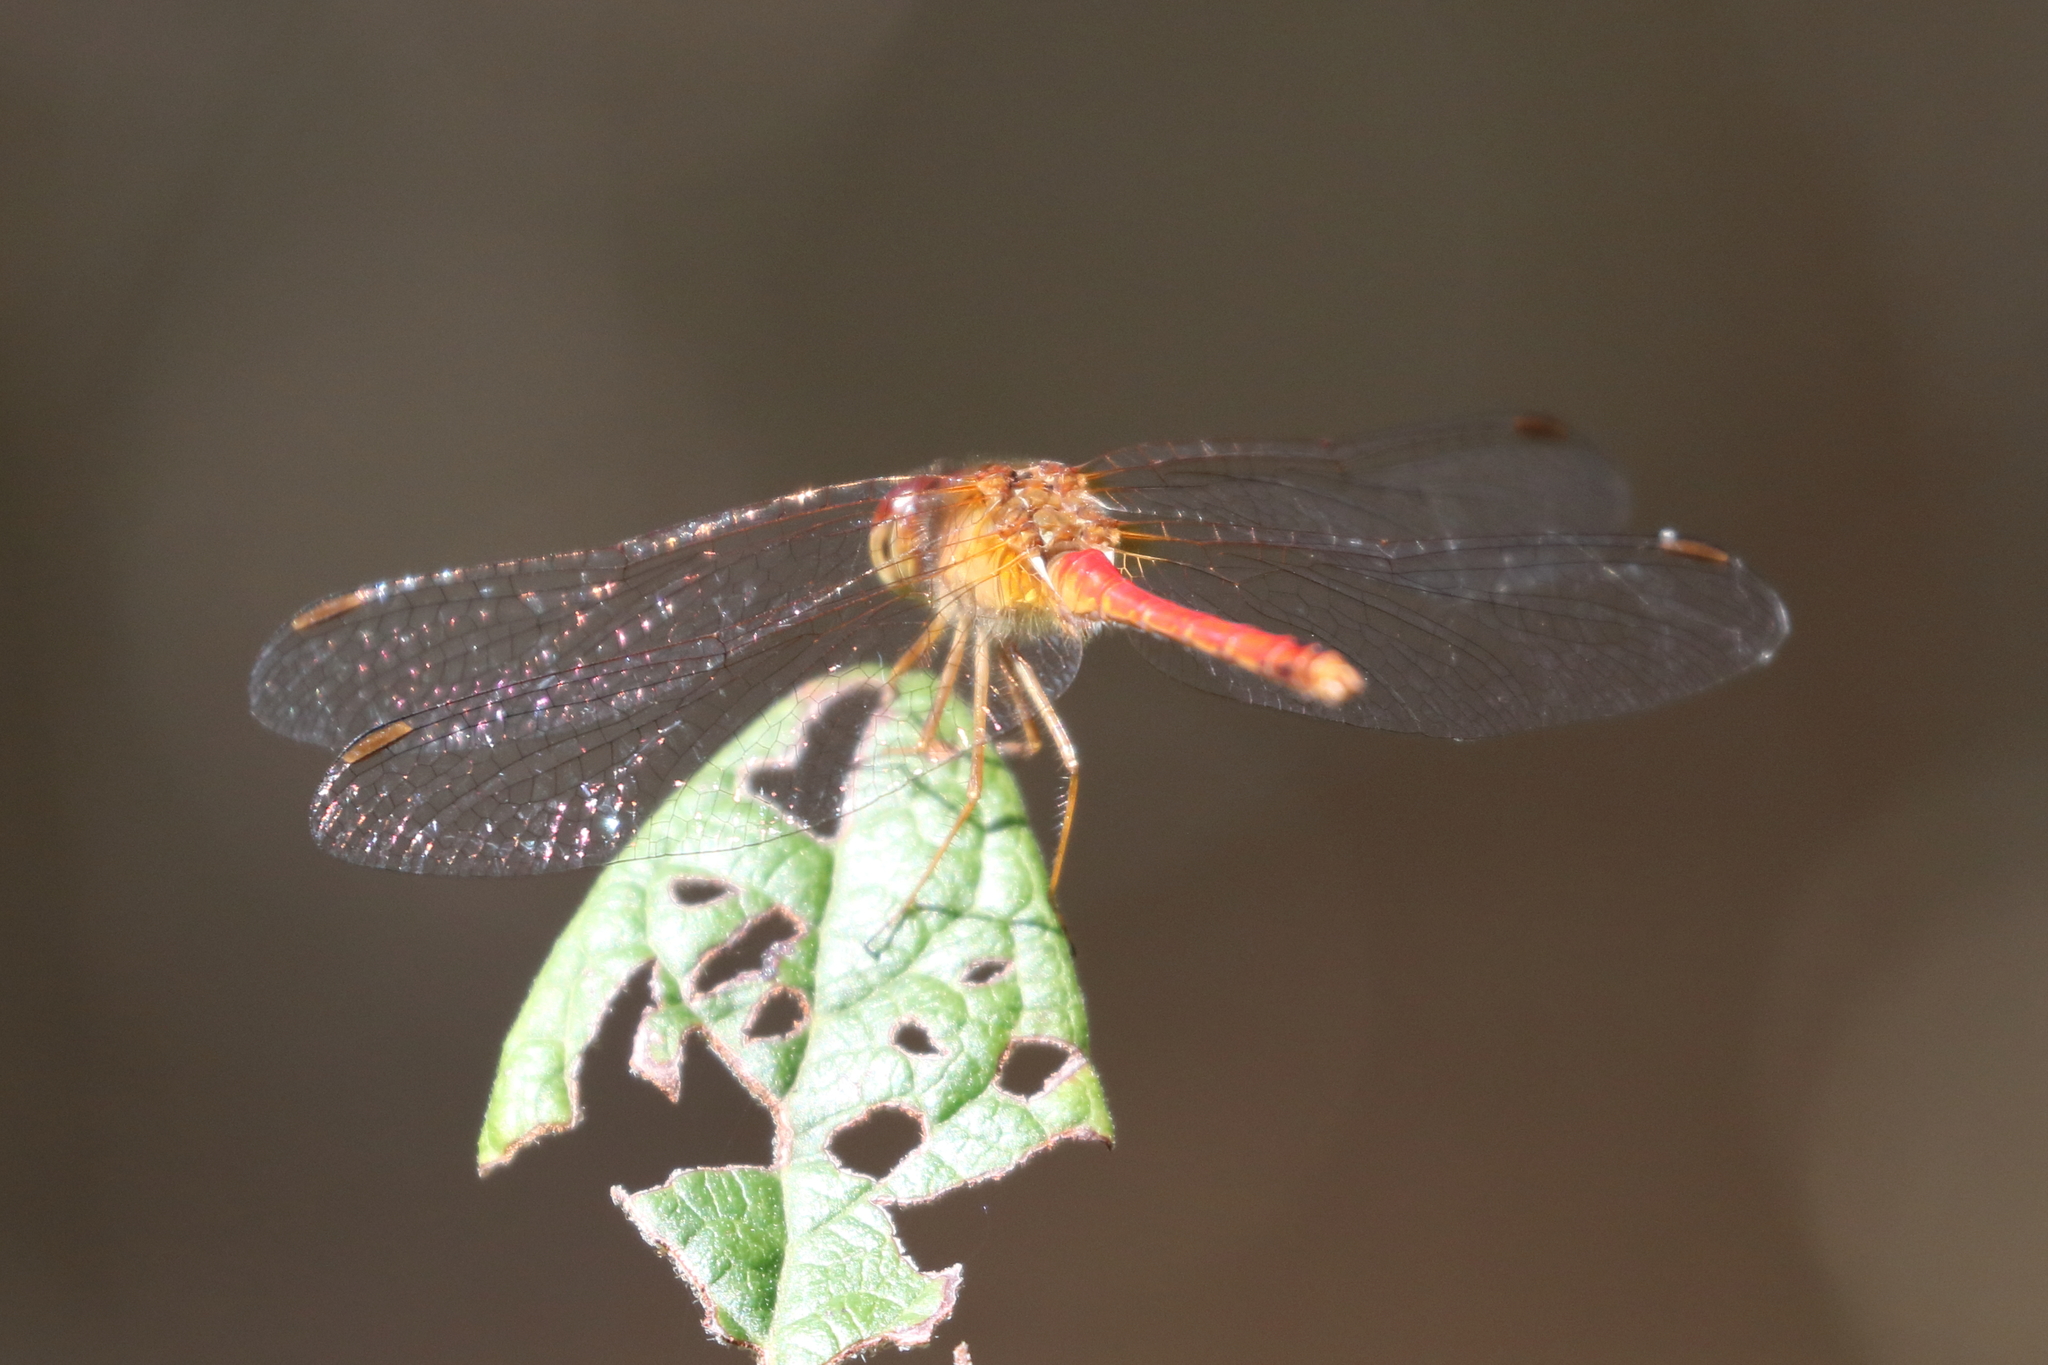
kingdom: Animalia
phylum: Arthropoda
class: Insecta
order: Odonata
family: Libellulidae
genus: Sympetrum
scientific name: Sympetrum vicinum
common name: Autumn meadowhawk
